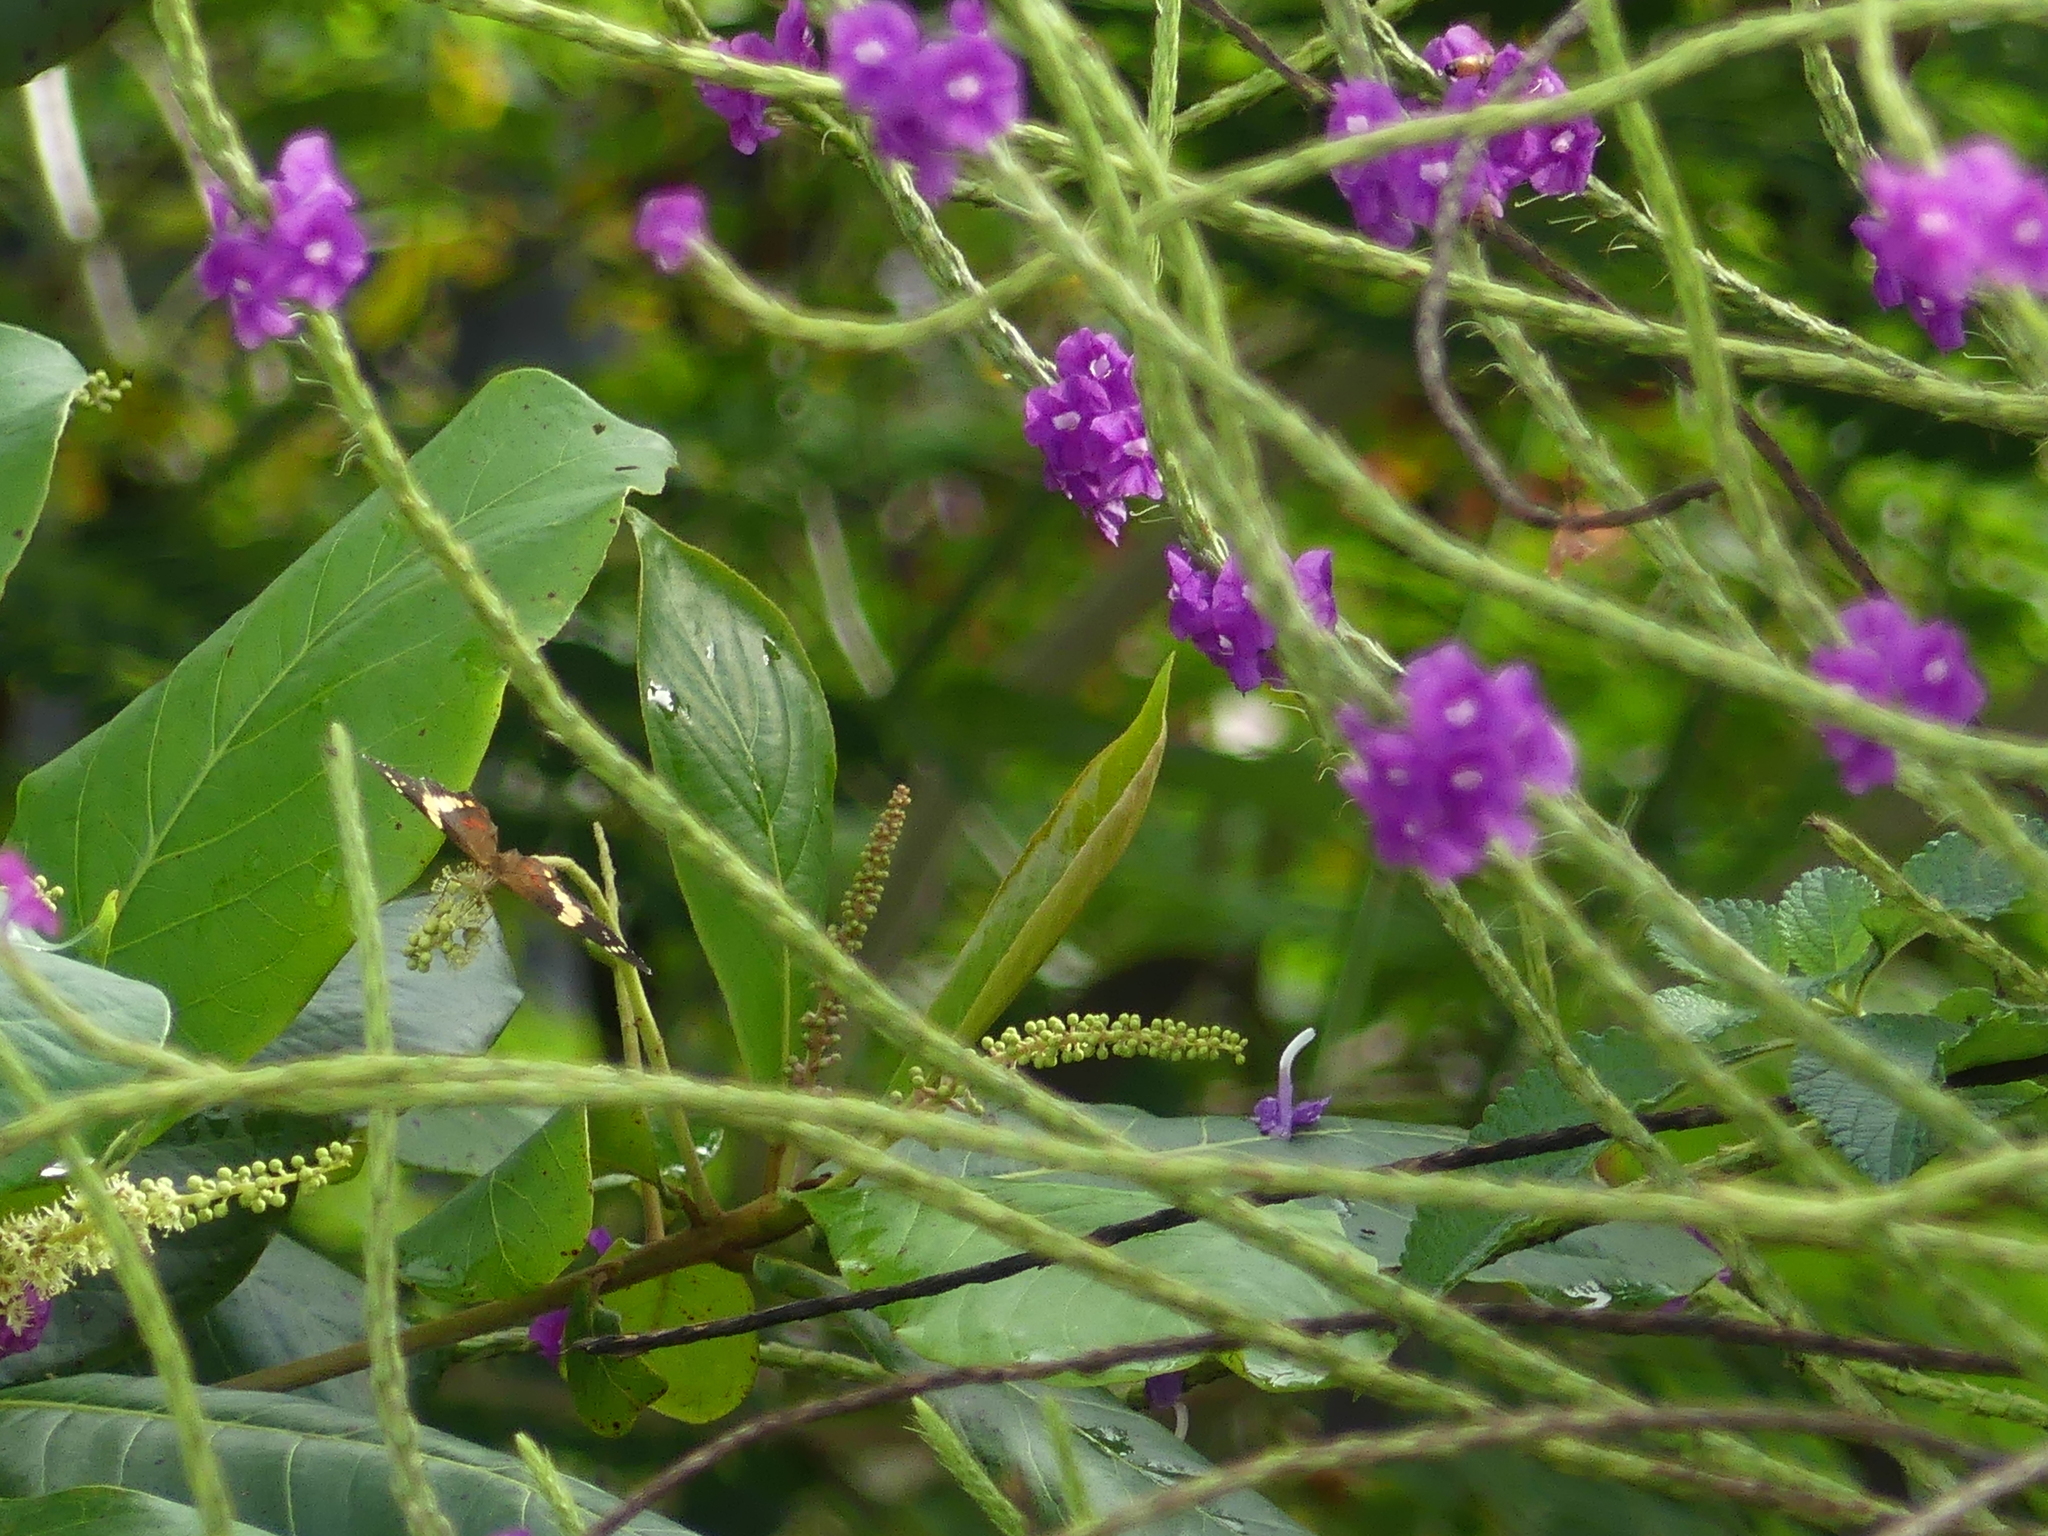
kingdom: Animalia
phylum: Arthropoda
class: Insecta
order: Lepidoptera
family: Nymphalidae
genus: Anartia
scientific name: Anartia fatima
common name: Banded peacock
